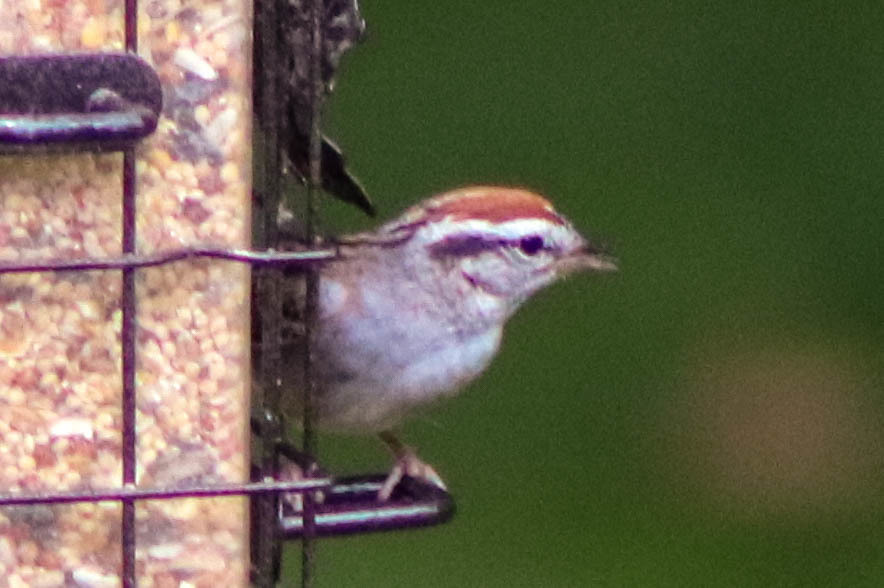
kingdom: Animalia
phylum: Chordata
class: Aves
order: Passeriformes
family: Passerellidae
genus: Spizella
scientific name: Spizella passerina
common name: Chipping sparrow
